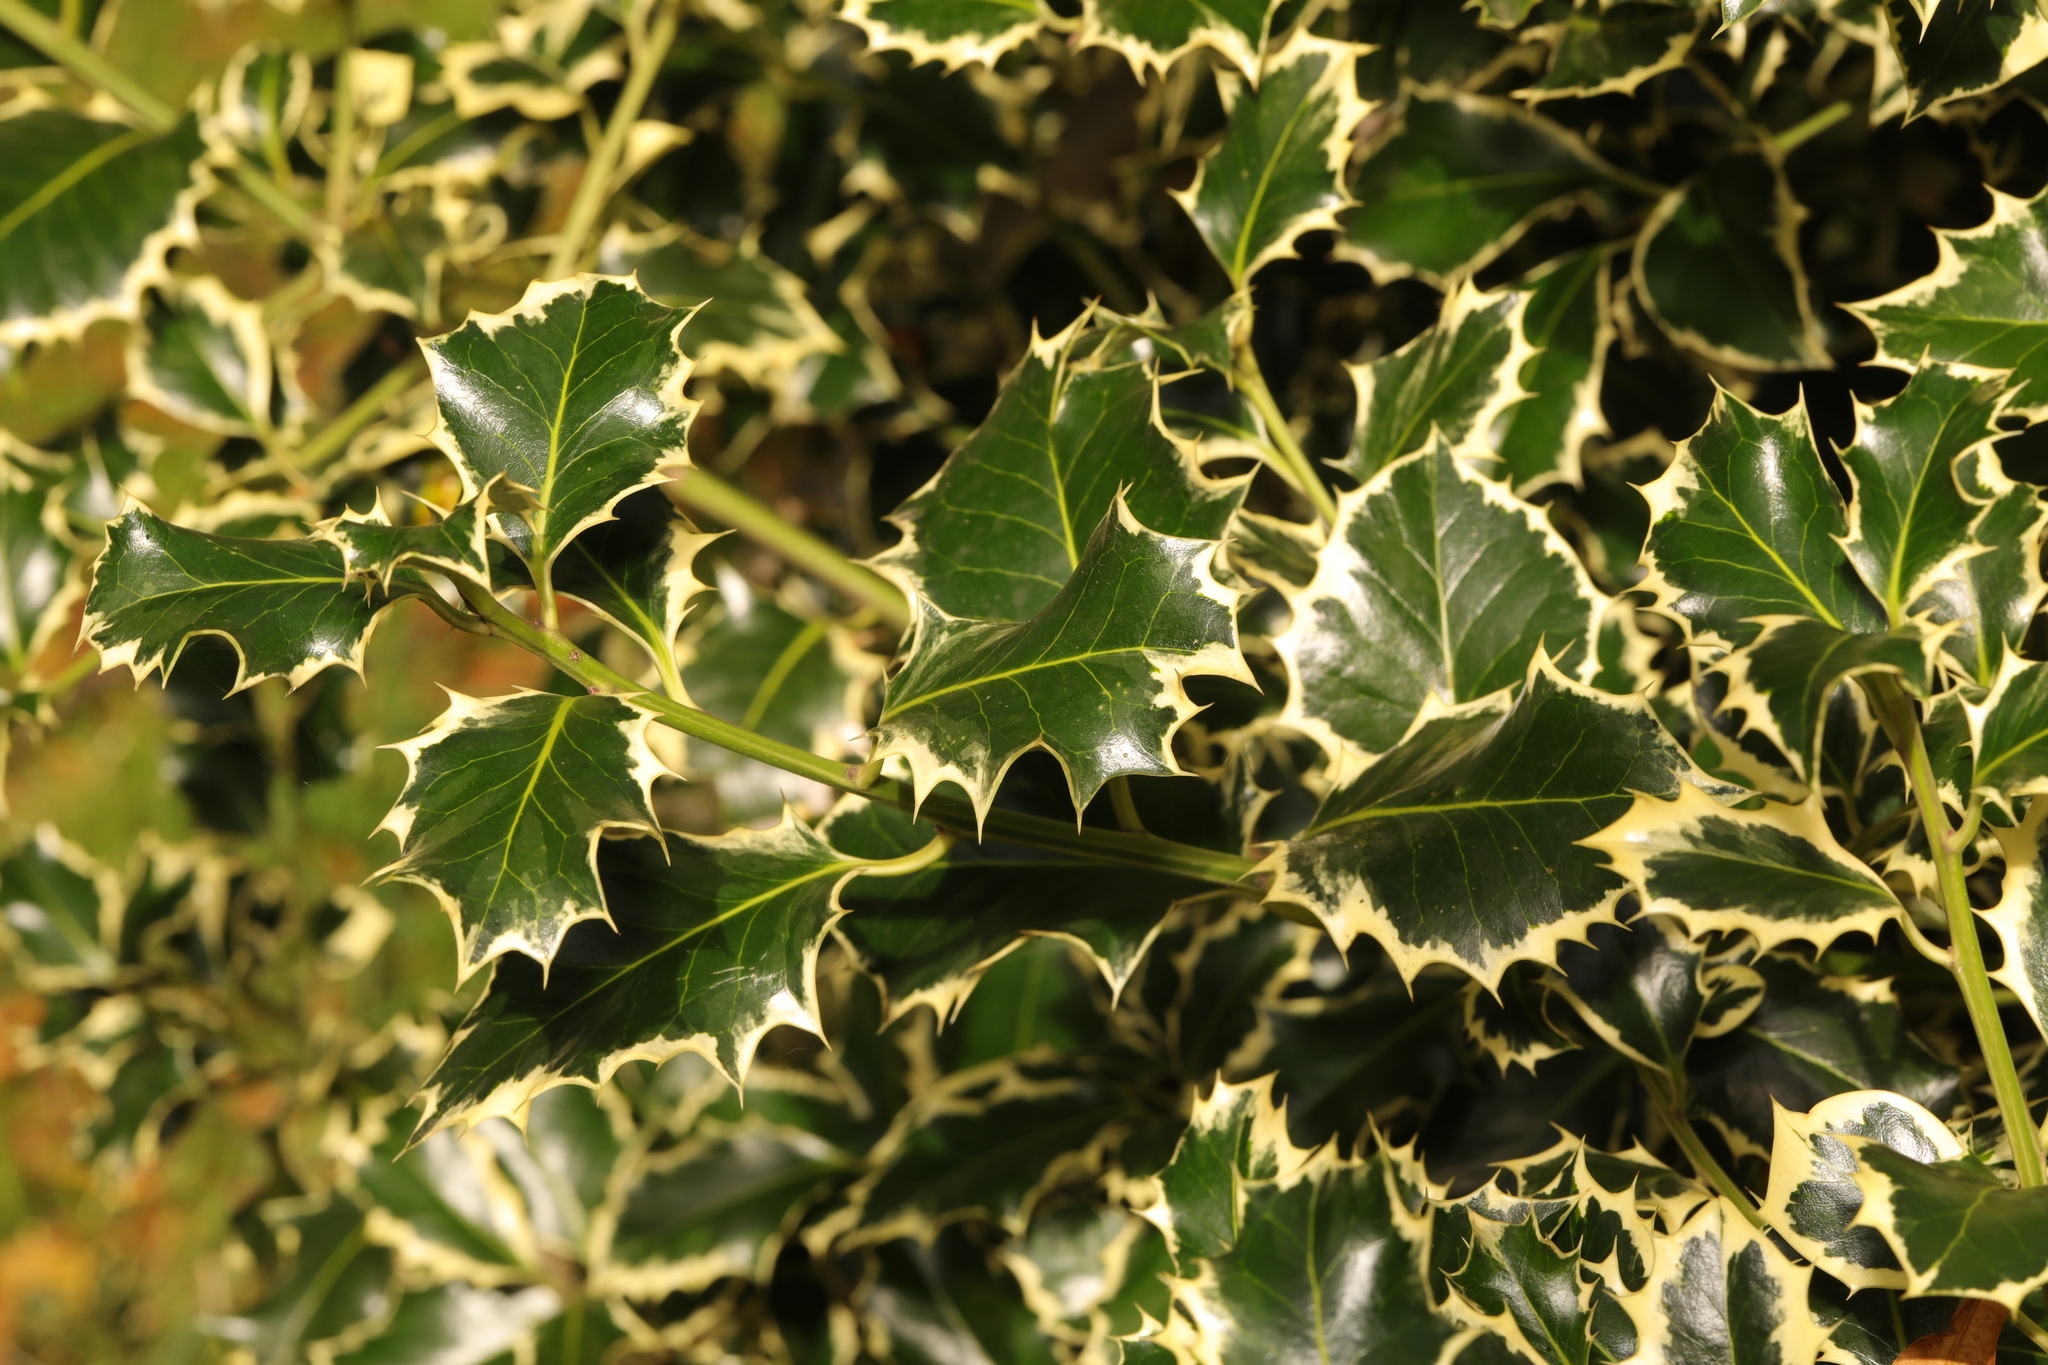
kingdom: Plantae
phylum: Tracheophyta
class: Magnoliopsida
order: Aquifoliales
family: Aquifoliaceae
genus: Ilex
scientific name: Ilex aquifolium
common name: English holly
